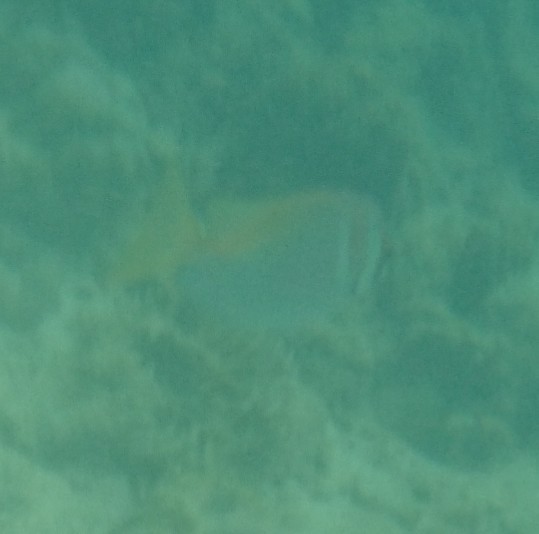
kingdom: Animalia
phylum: Chordata
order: Perciformes
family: Siganidae
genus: Siganus
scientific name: Siganus virgatus
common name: Barhead spinefoot
